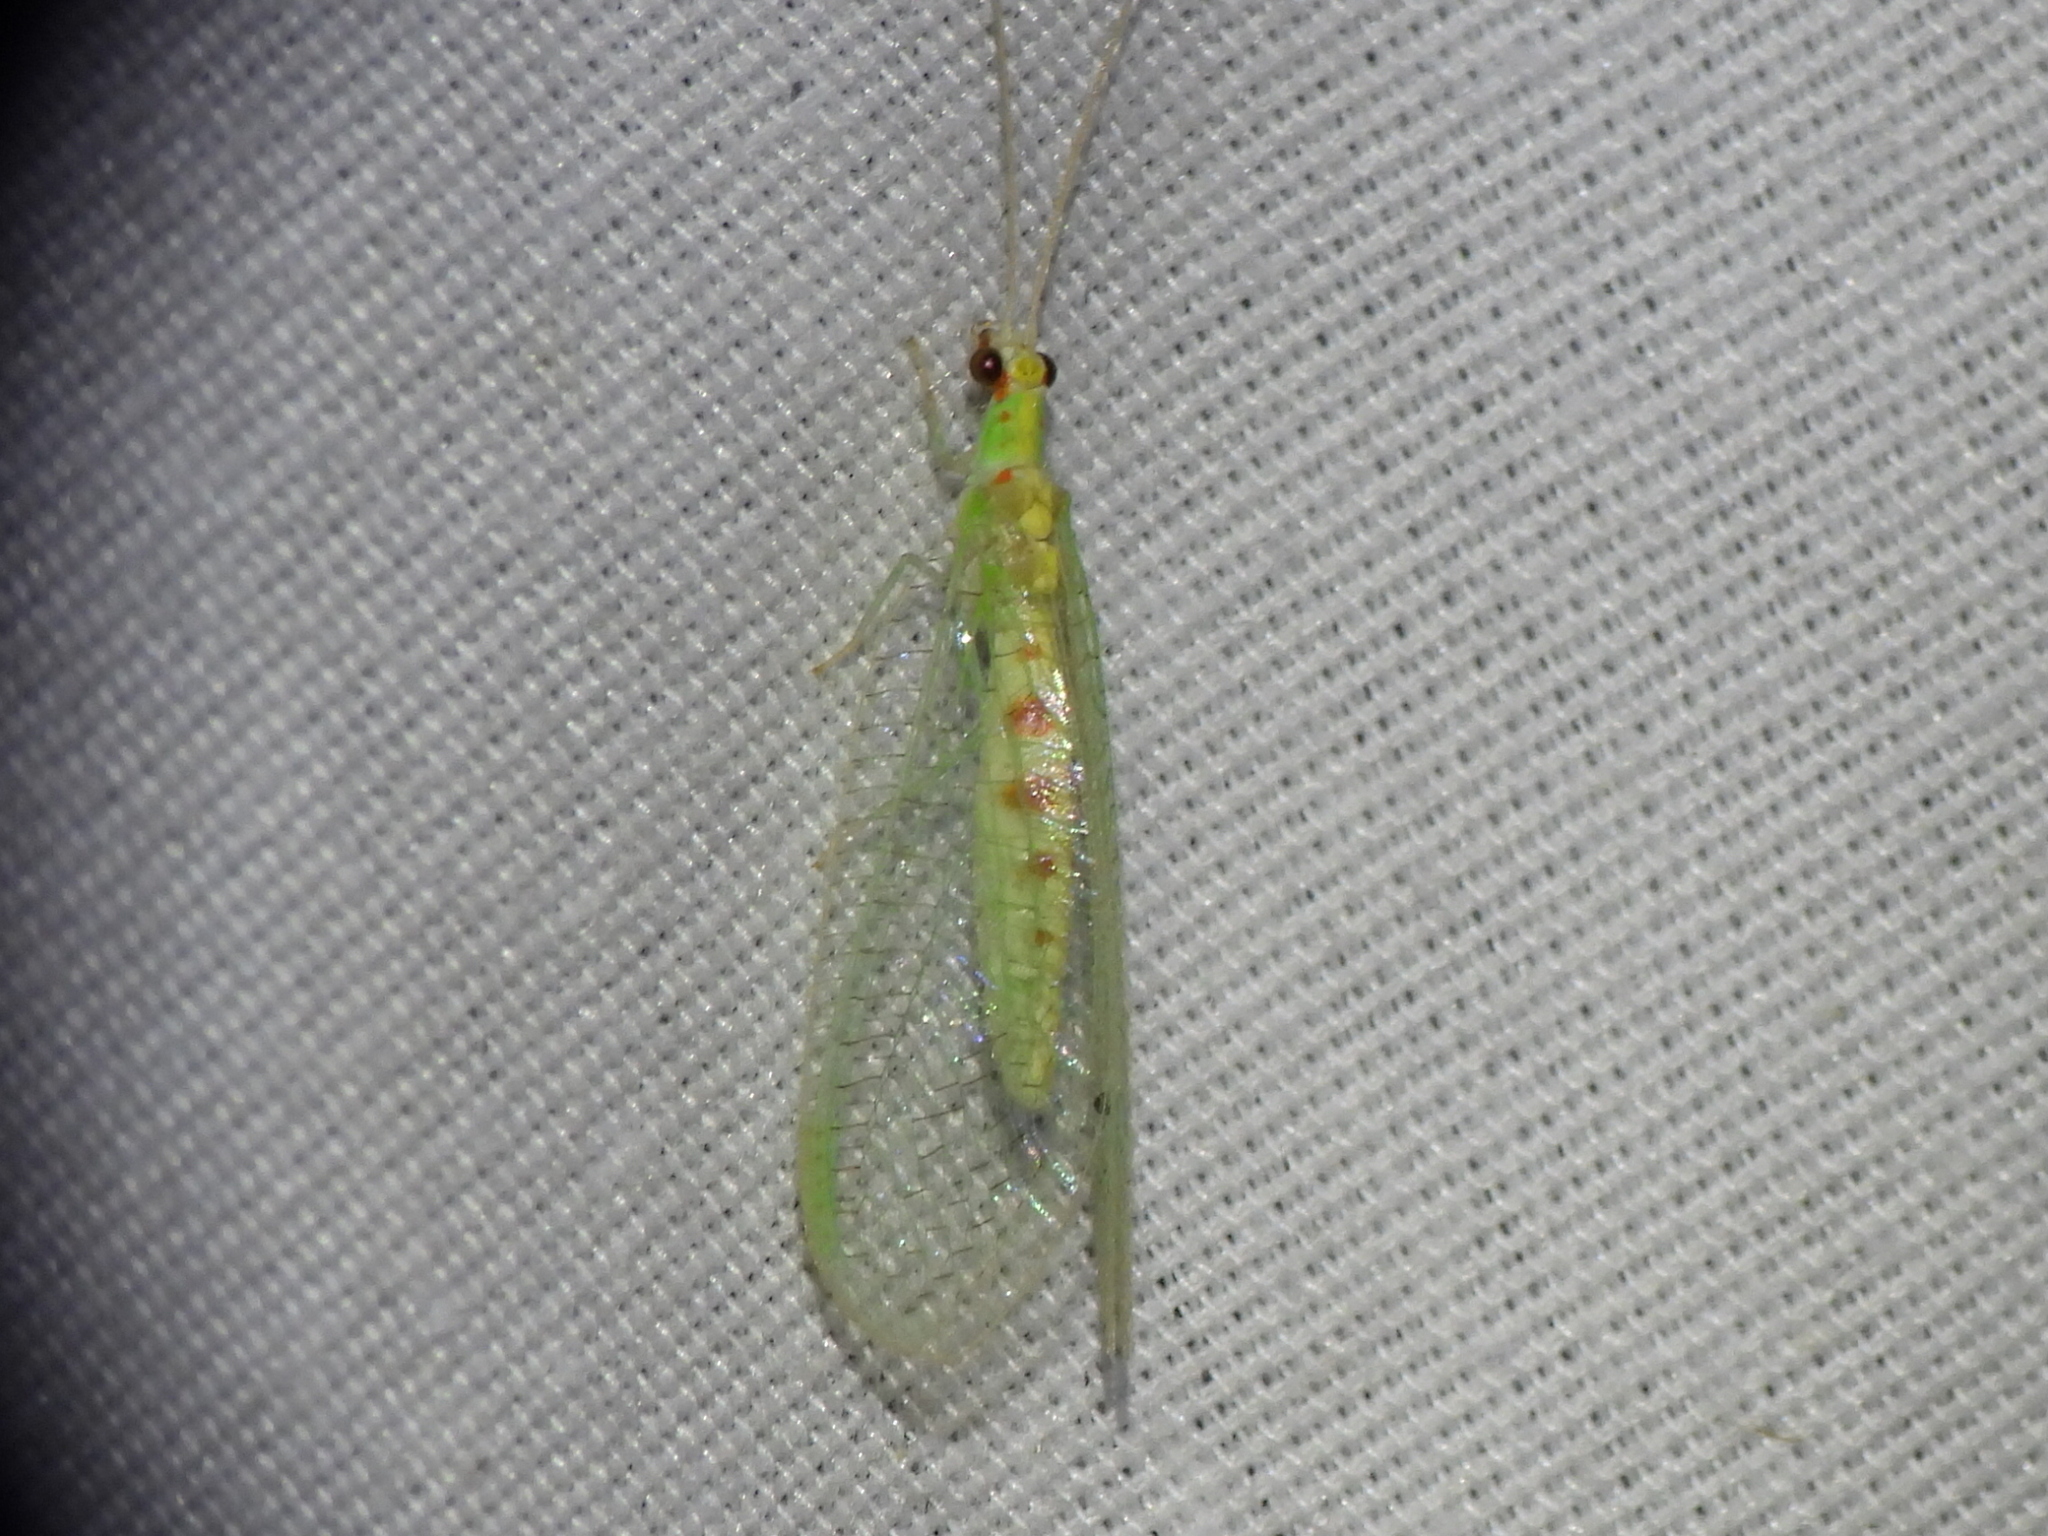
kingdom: Animalia
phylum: Arthropoda
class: Insecta
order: Neuroptera
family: Chrysopidae
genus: Chrysopa
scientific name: Chrysopa quadripunctata
